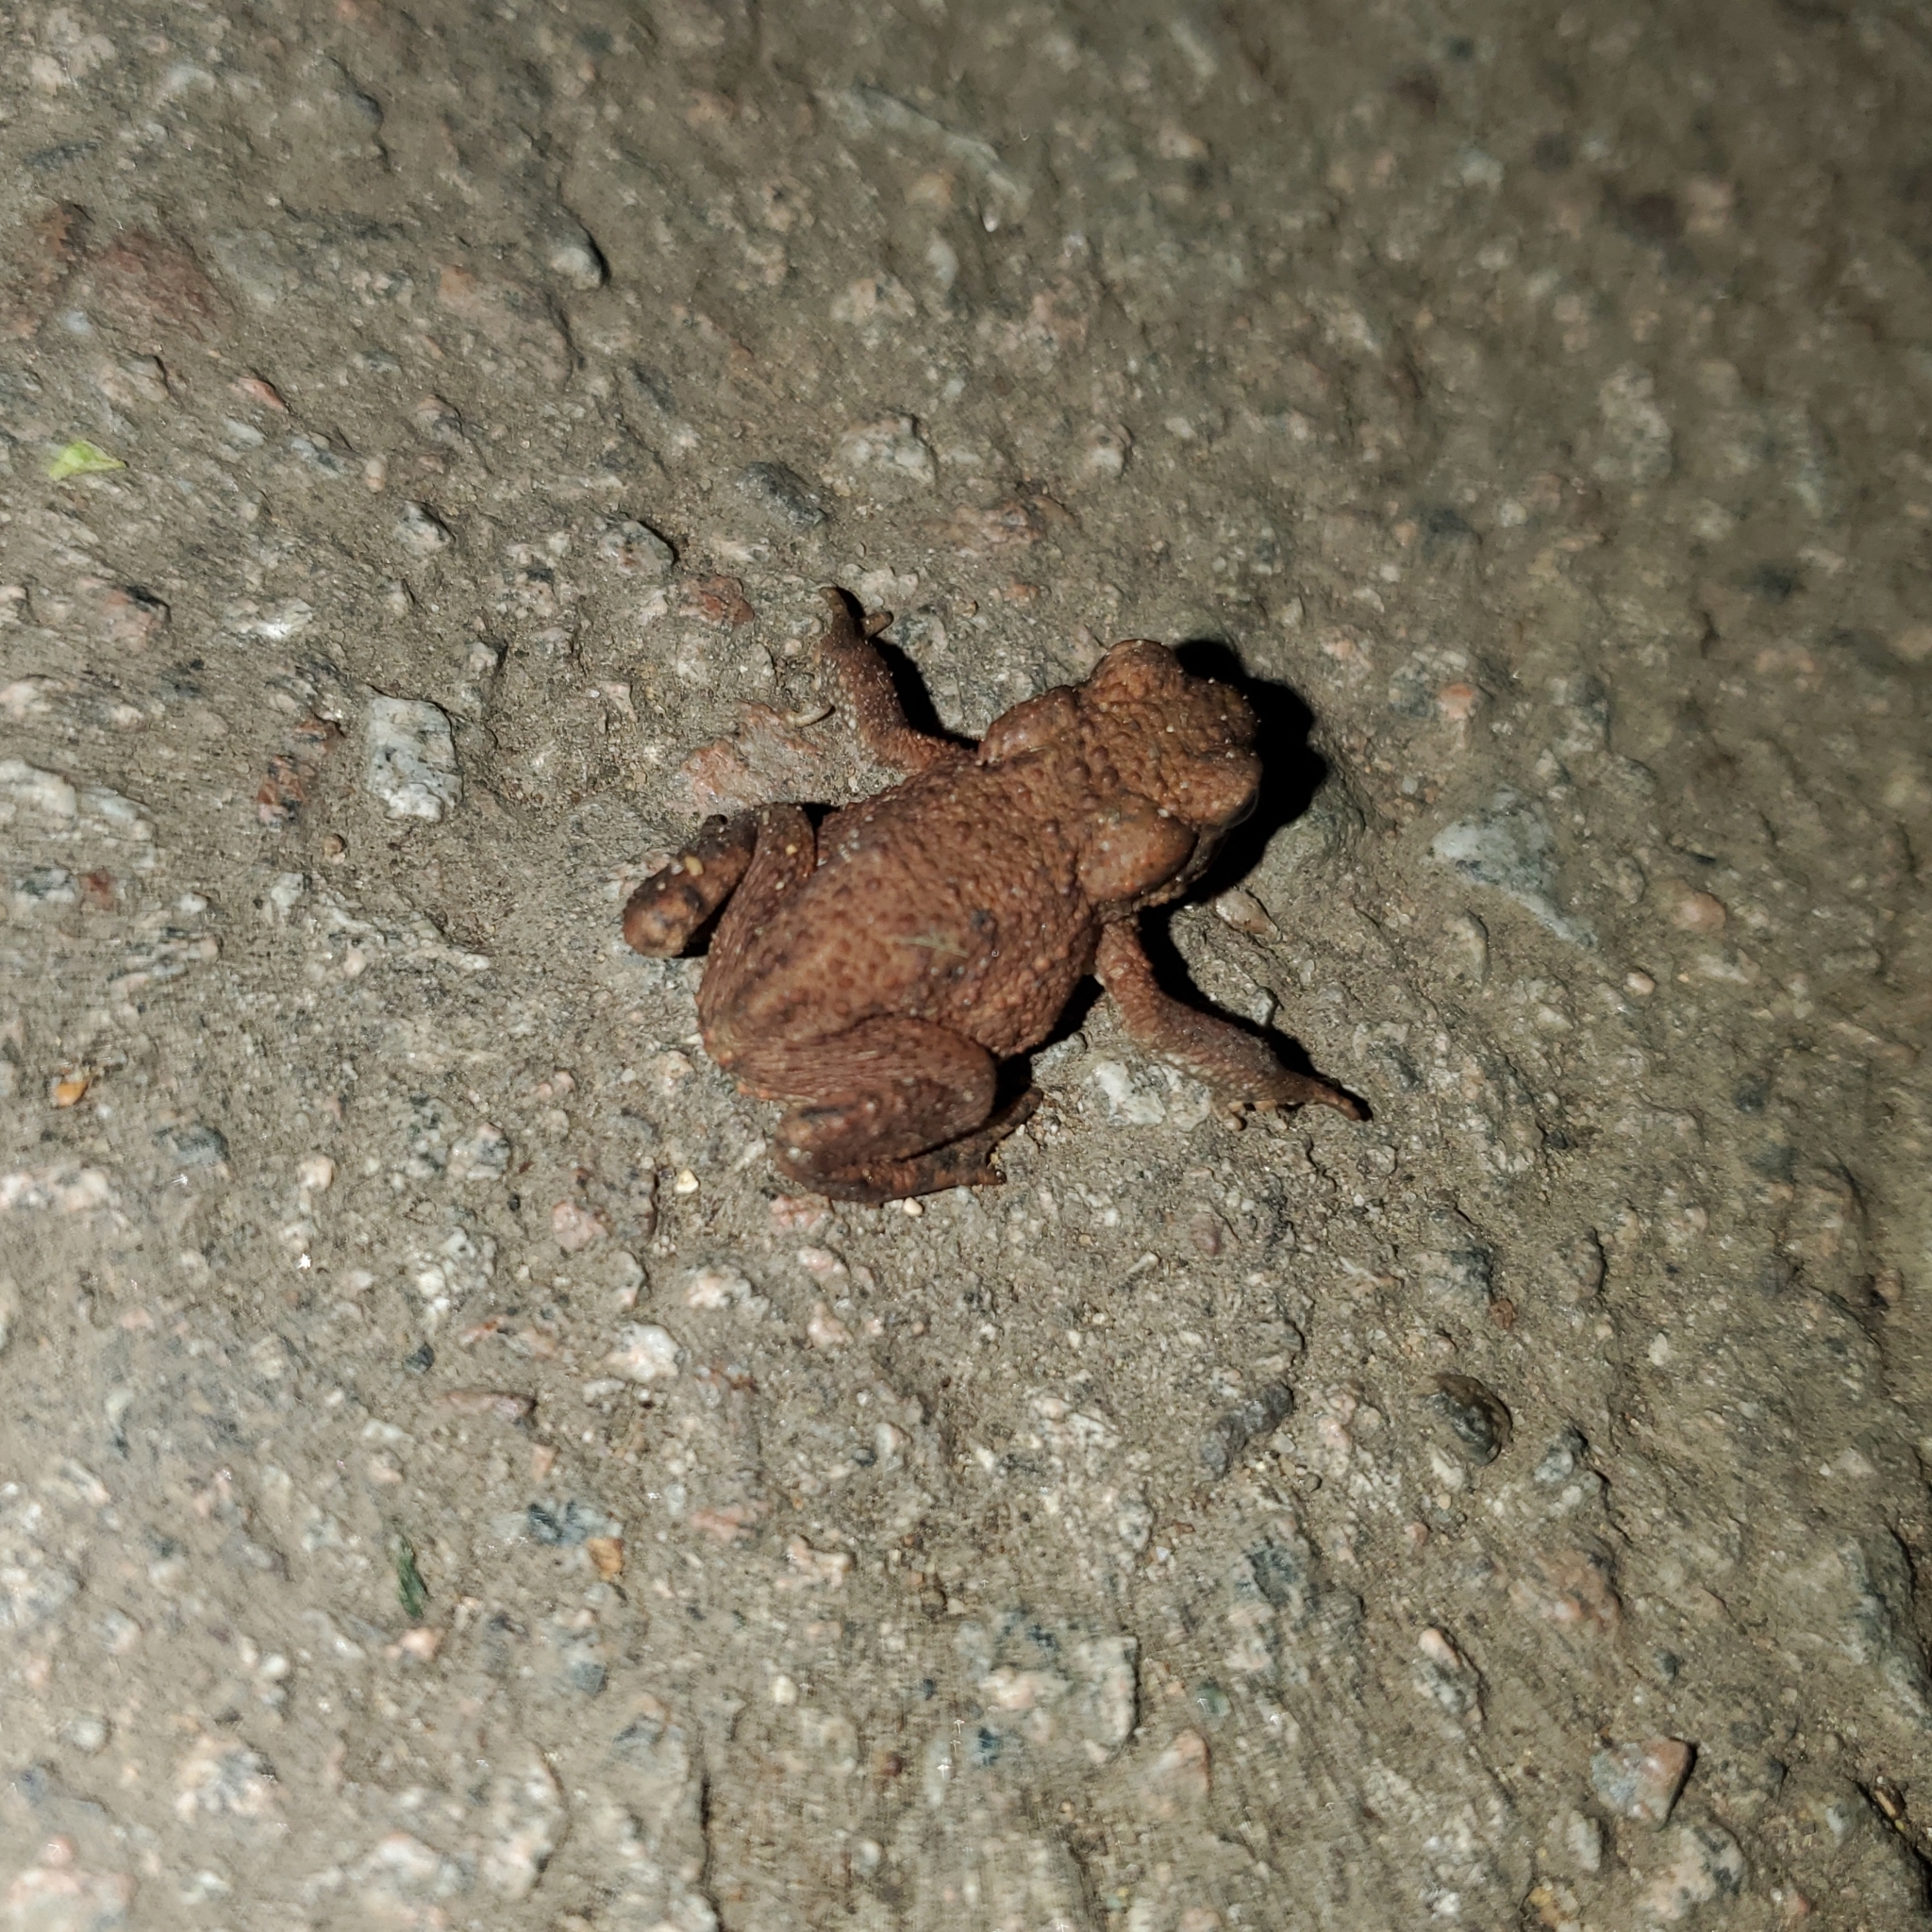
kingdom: Animalia
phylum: Chordata
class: Amphibia
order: Anura
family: Bufonidae
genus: Bufo
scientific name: Bufo bufo
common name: Common toad
